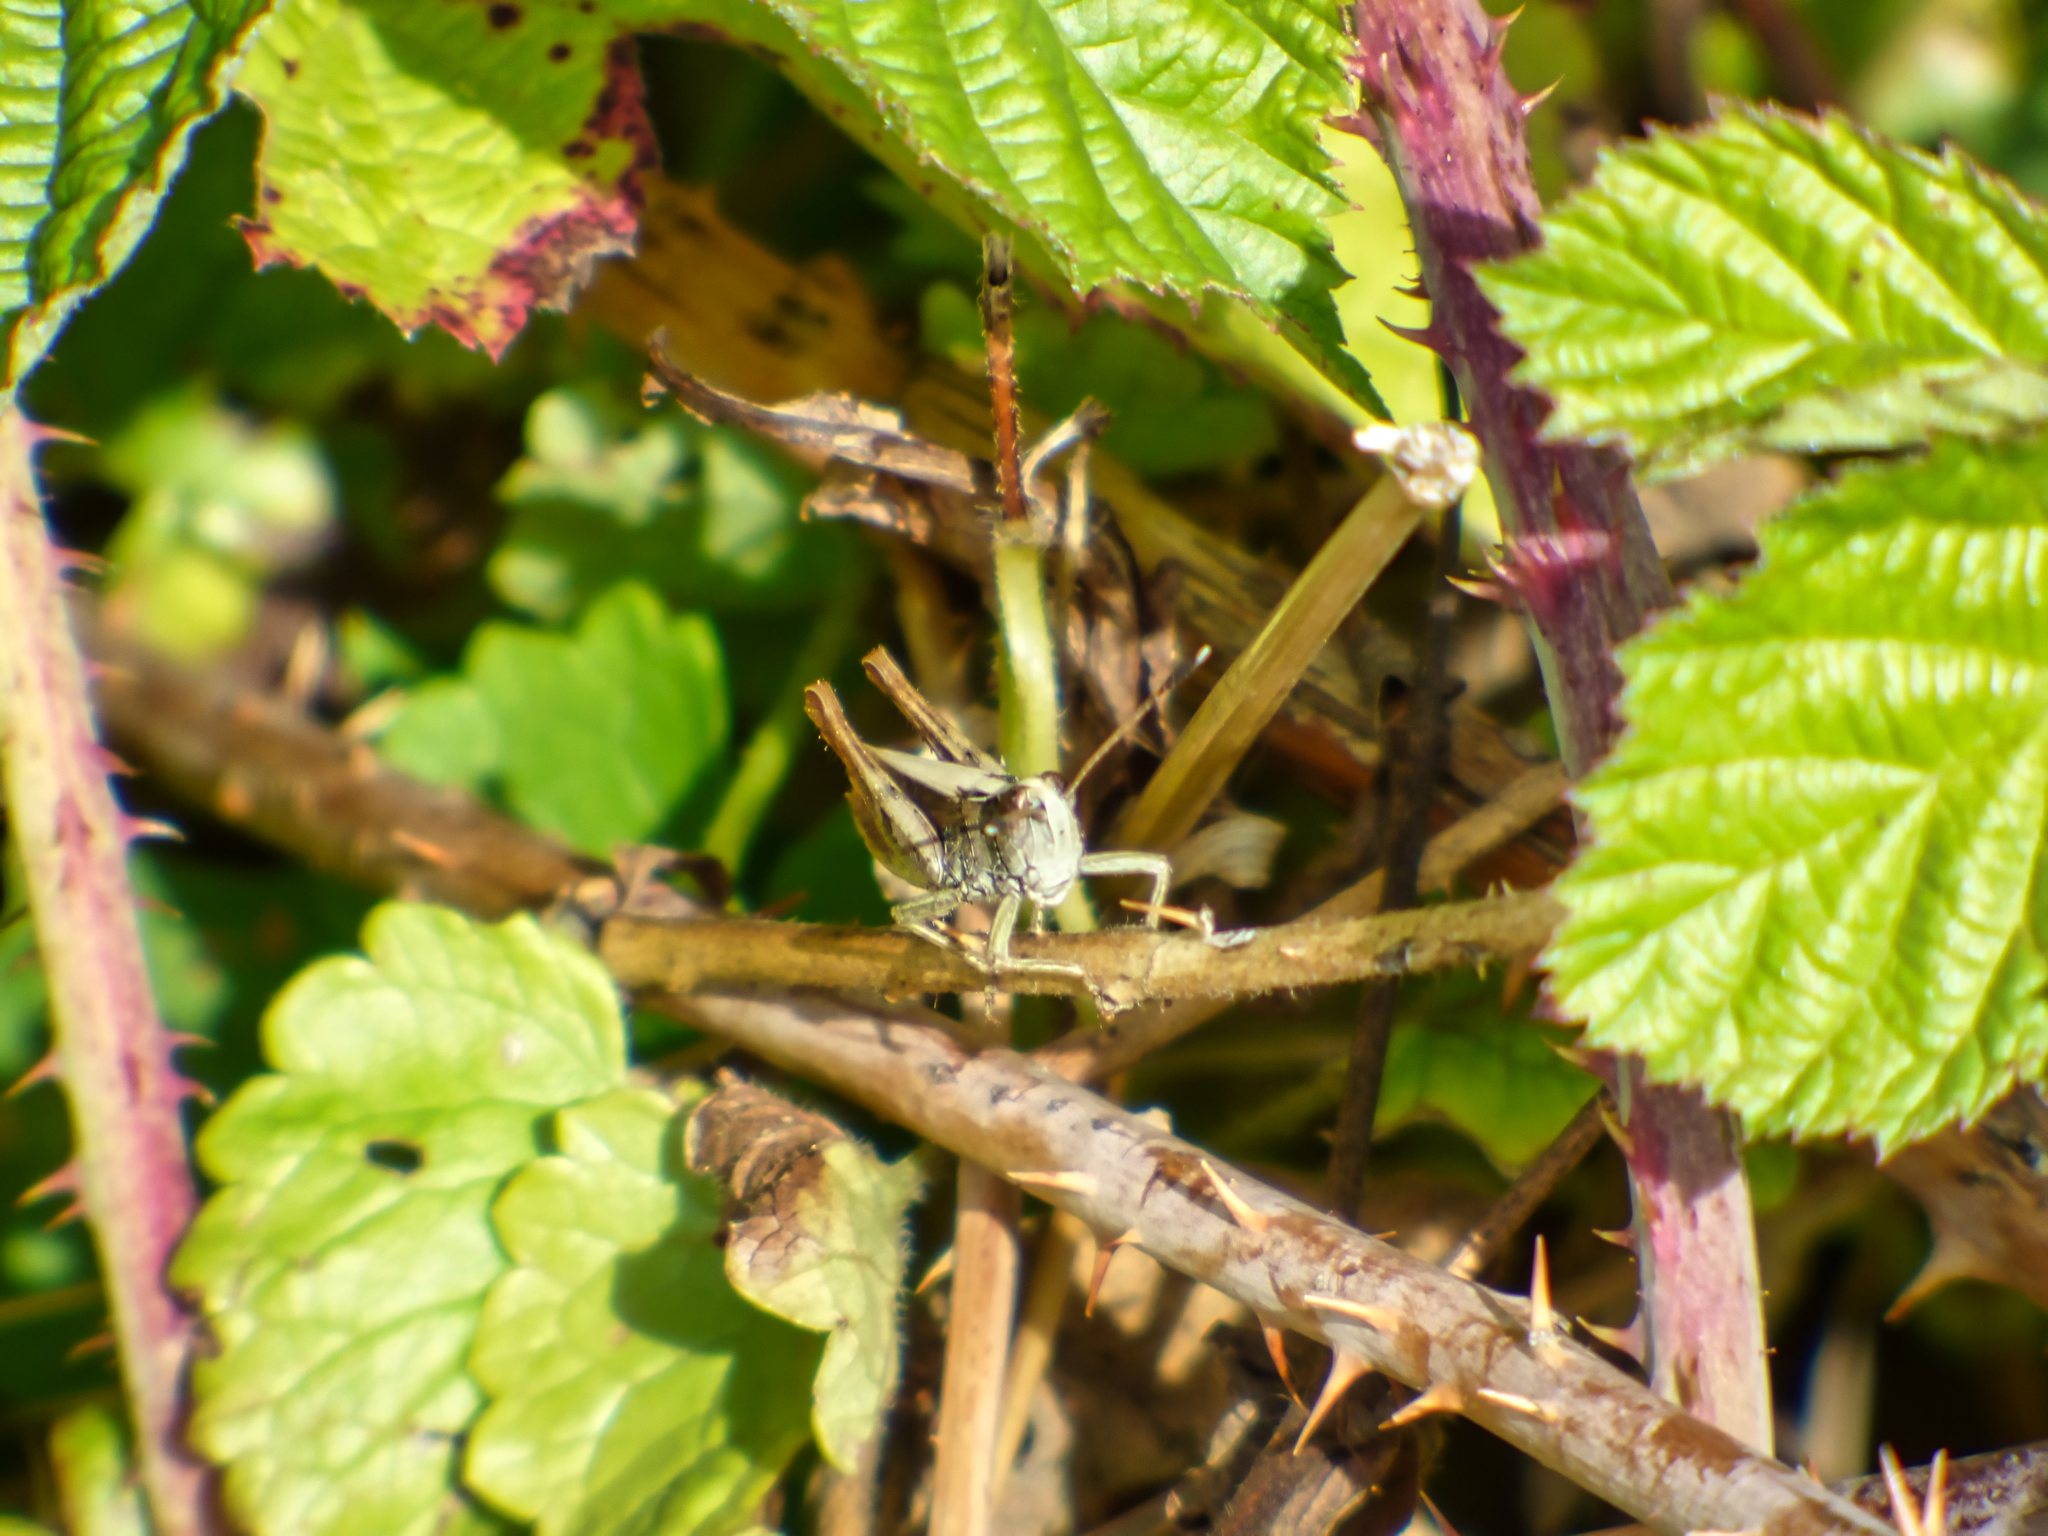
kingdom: Animalia
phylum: Arthropoda
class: Insecta
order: Orthoptera
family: Acrididae
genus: Gomphocerippus
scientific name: Gomphocerippus rufus
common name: Rufous grasshopper
